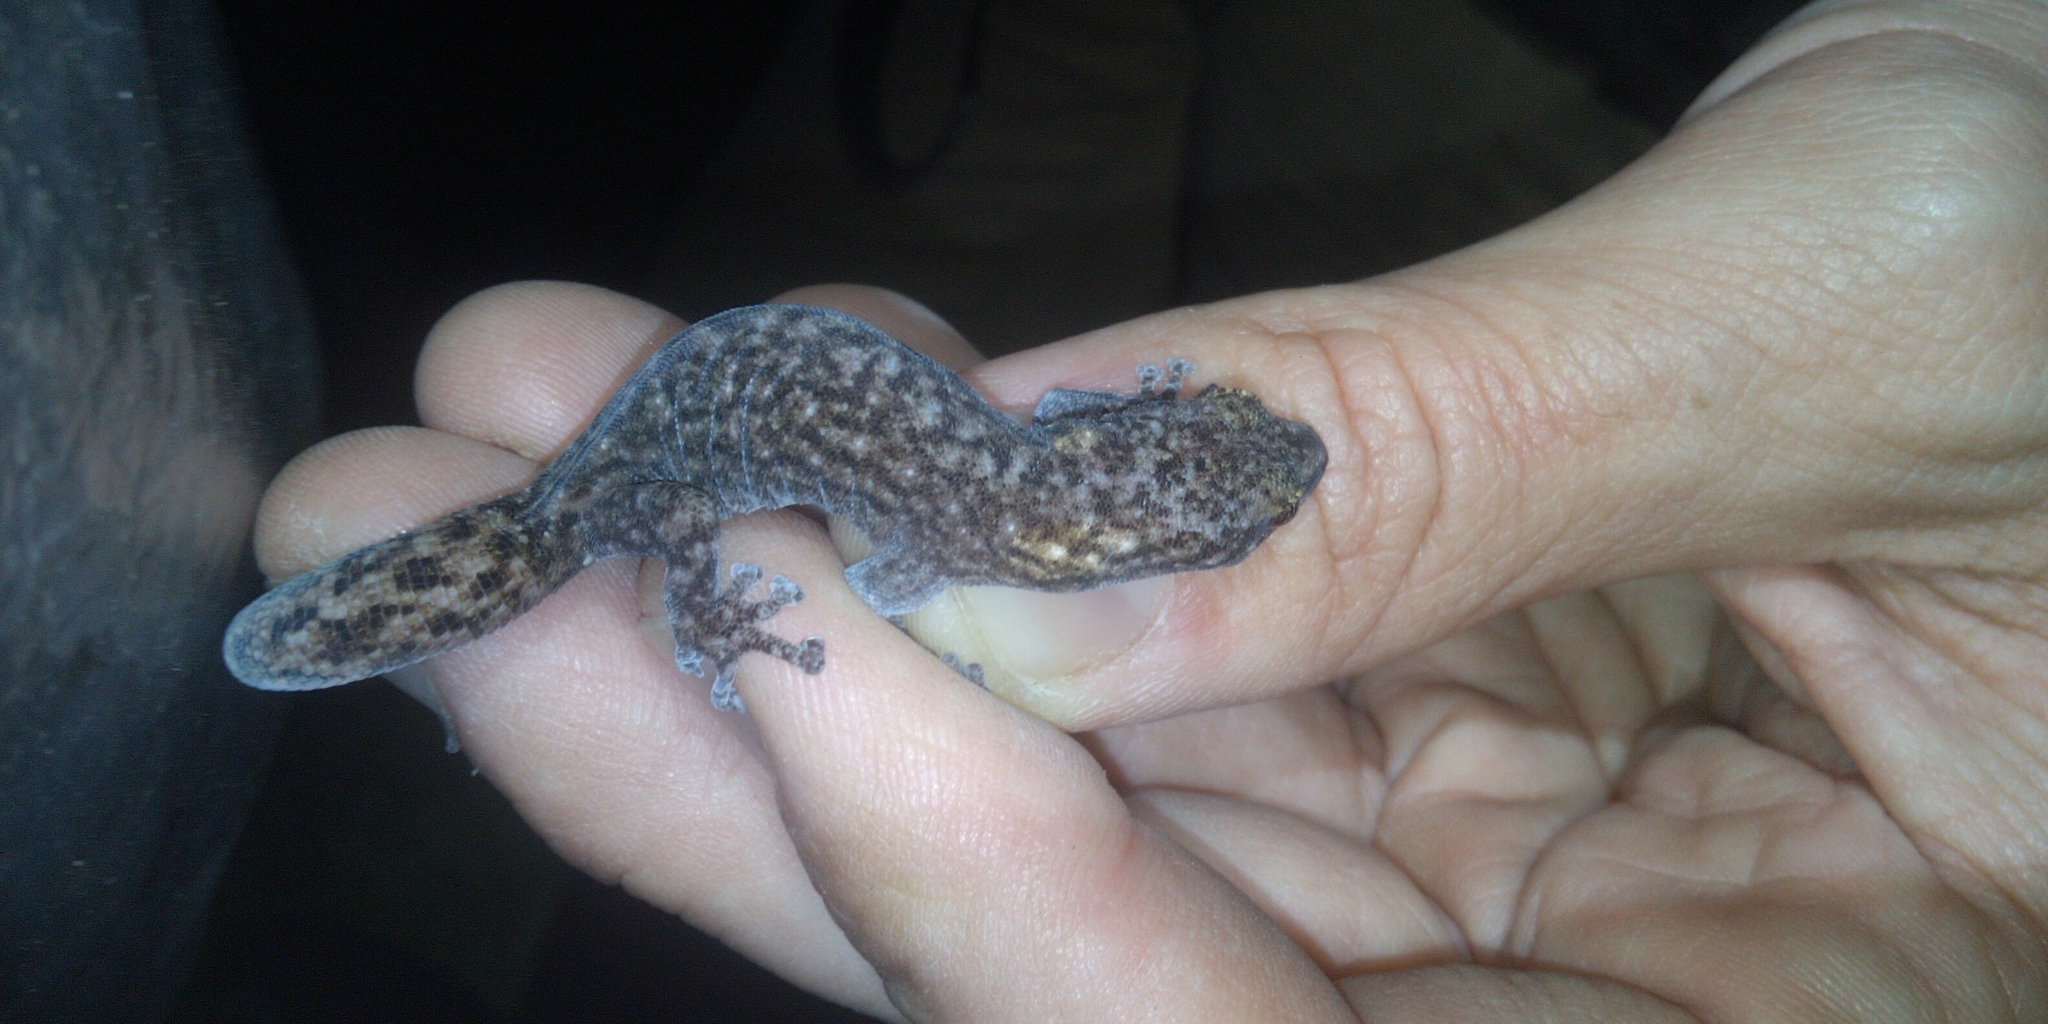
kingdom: Animalia
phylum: Chordata
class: Squamata
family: Gekkonidae
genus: Afrogecko
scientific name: Afrogecko porphyreus
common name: Marbled leaf-toed gecko
